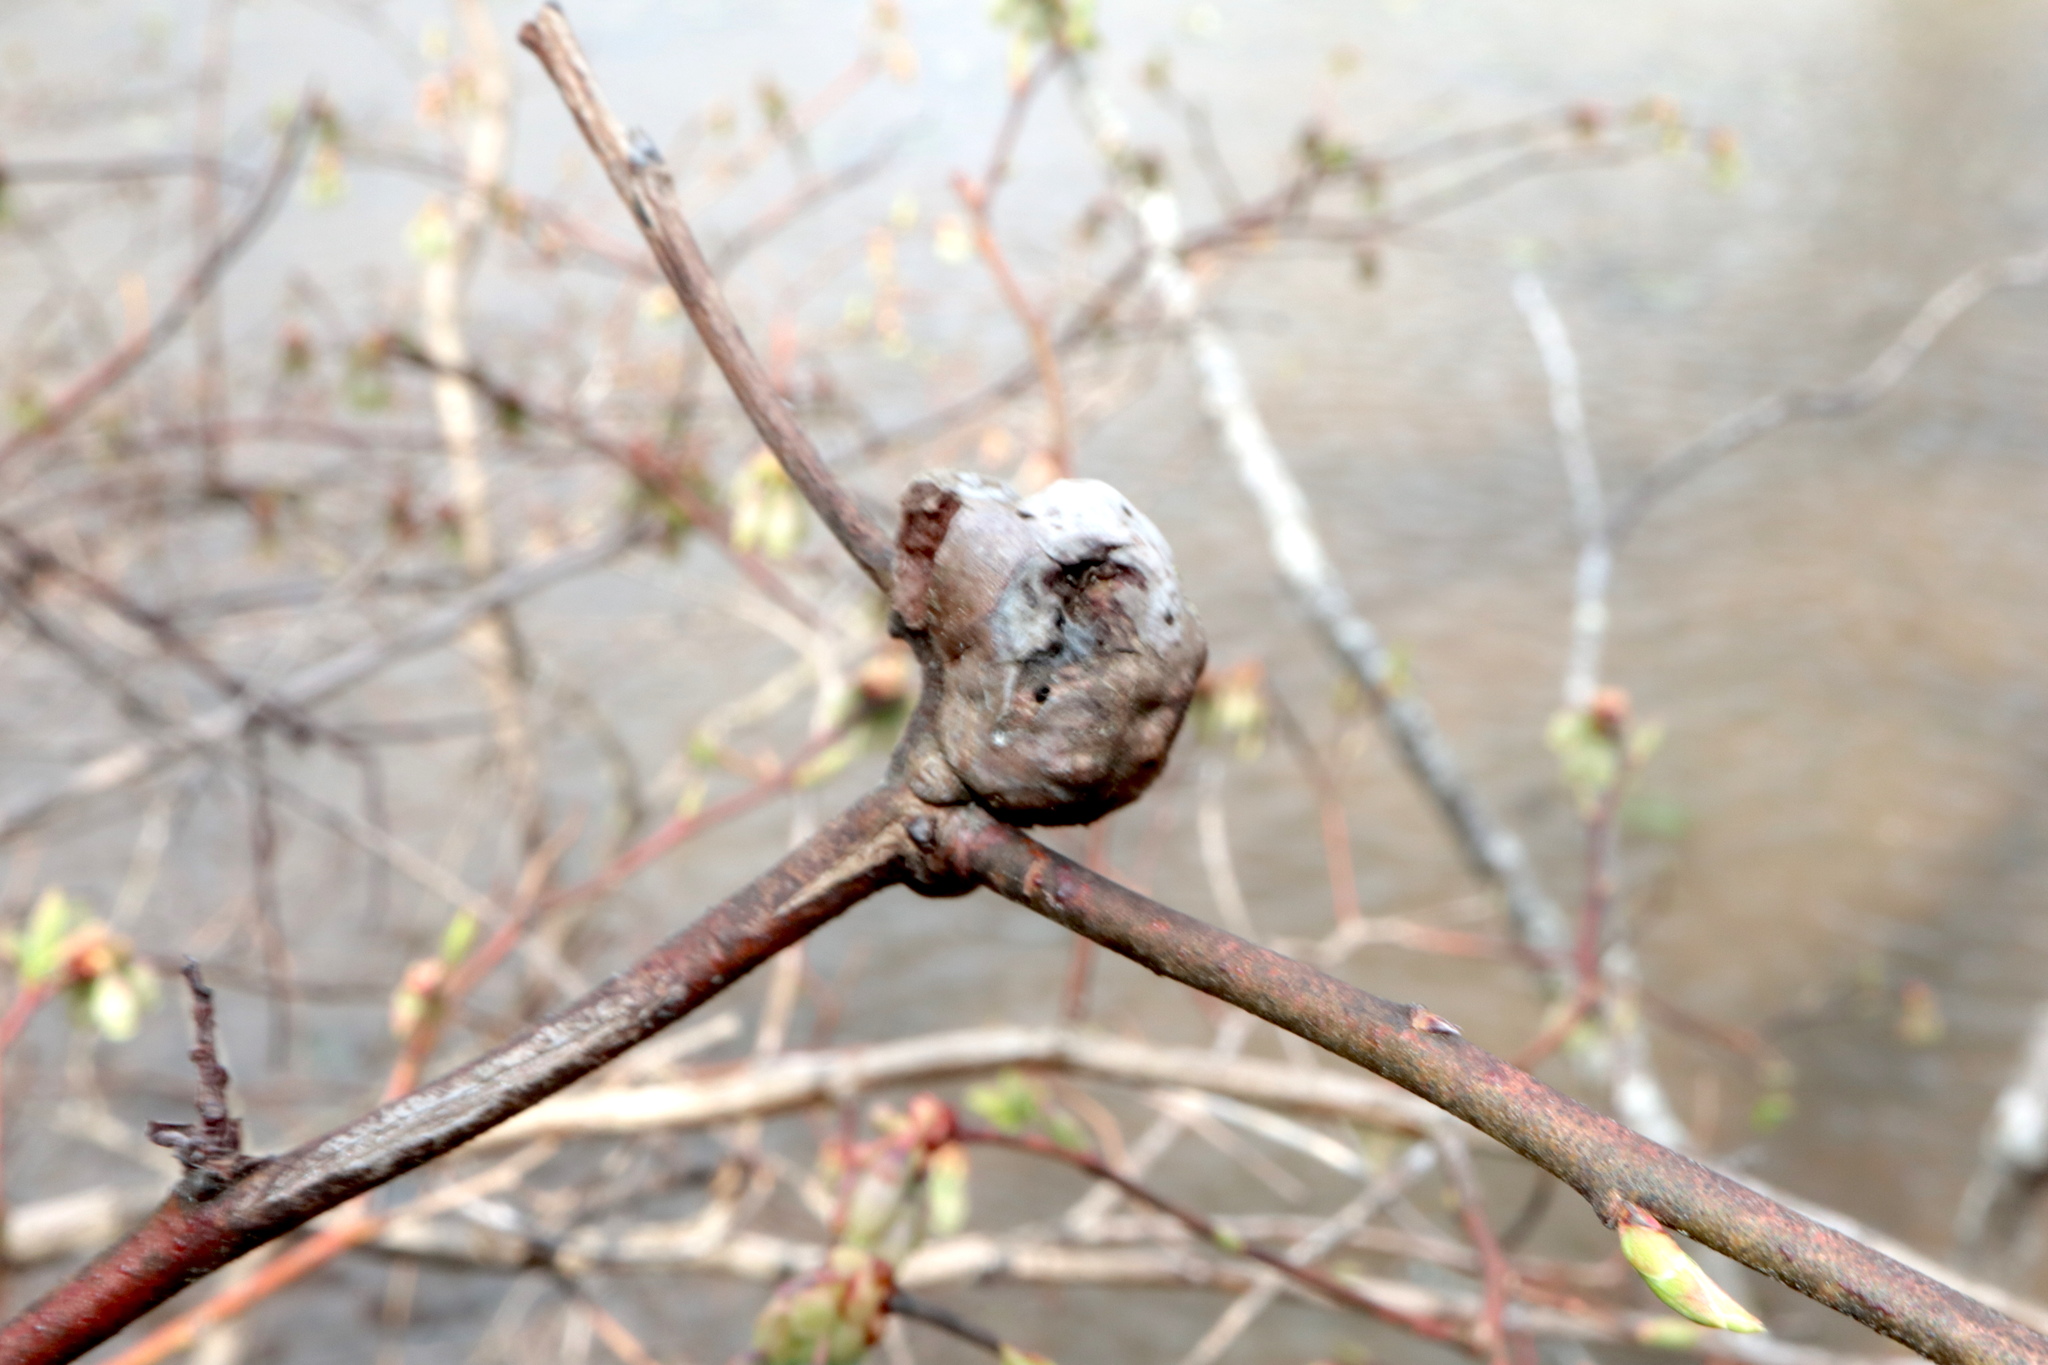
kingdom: Animalia
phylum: Arthropoda
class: Insecta
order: Hymenoptera
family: Pteromalidae
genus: Hemadas
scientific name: Hemadas nubilipennis
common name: Blueberry stem gall wasp
